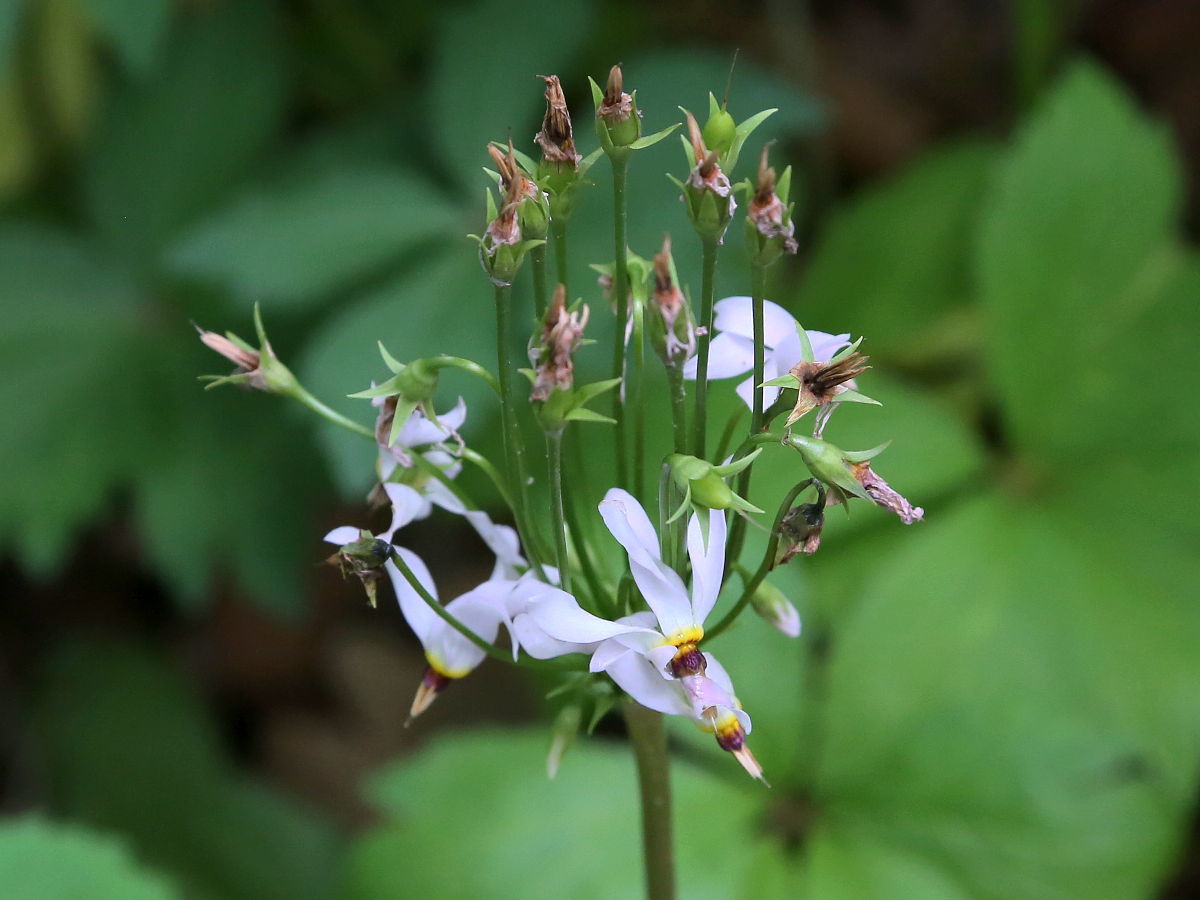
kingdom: Plantae
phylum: Tracheophyta
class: Magnoliopsida
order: Ericales
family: Primulaceae
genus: Dodecatheon
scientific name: Dodecatheon meadia
